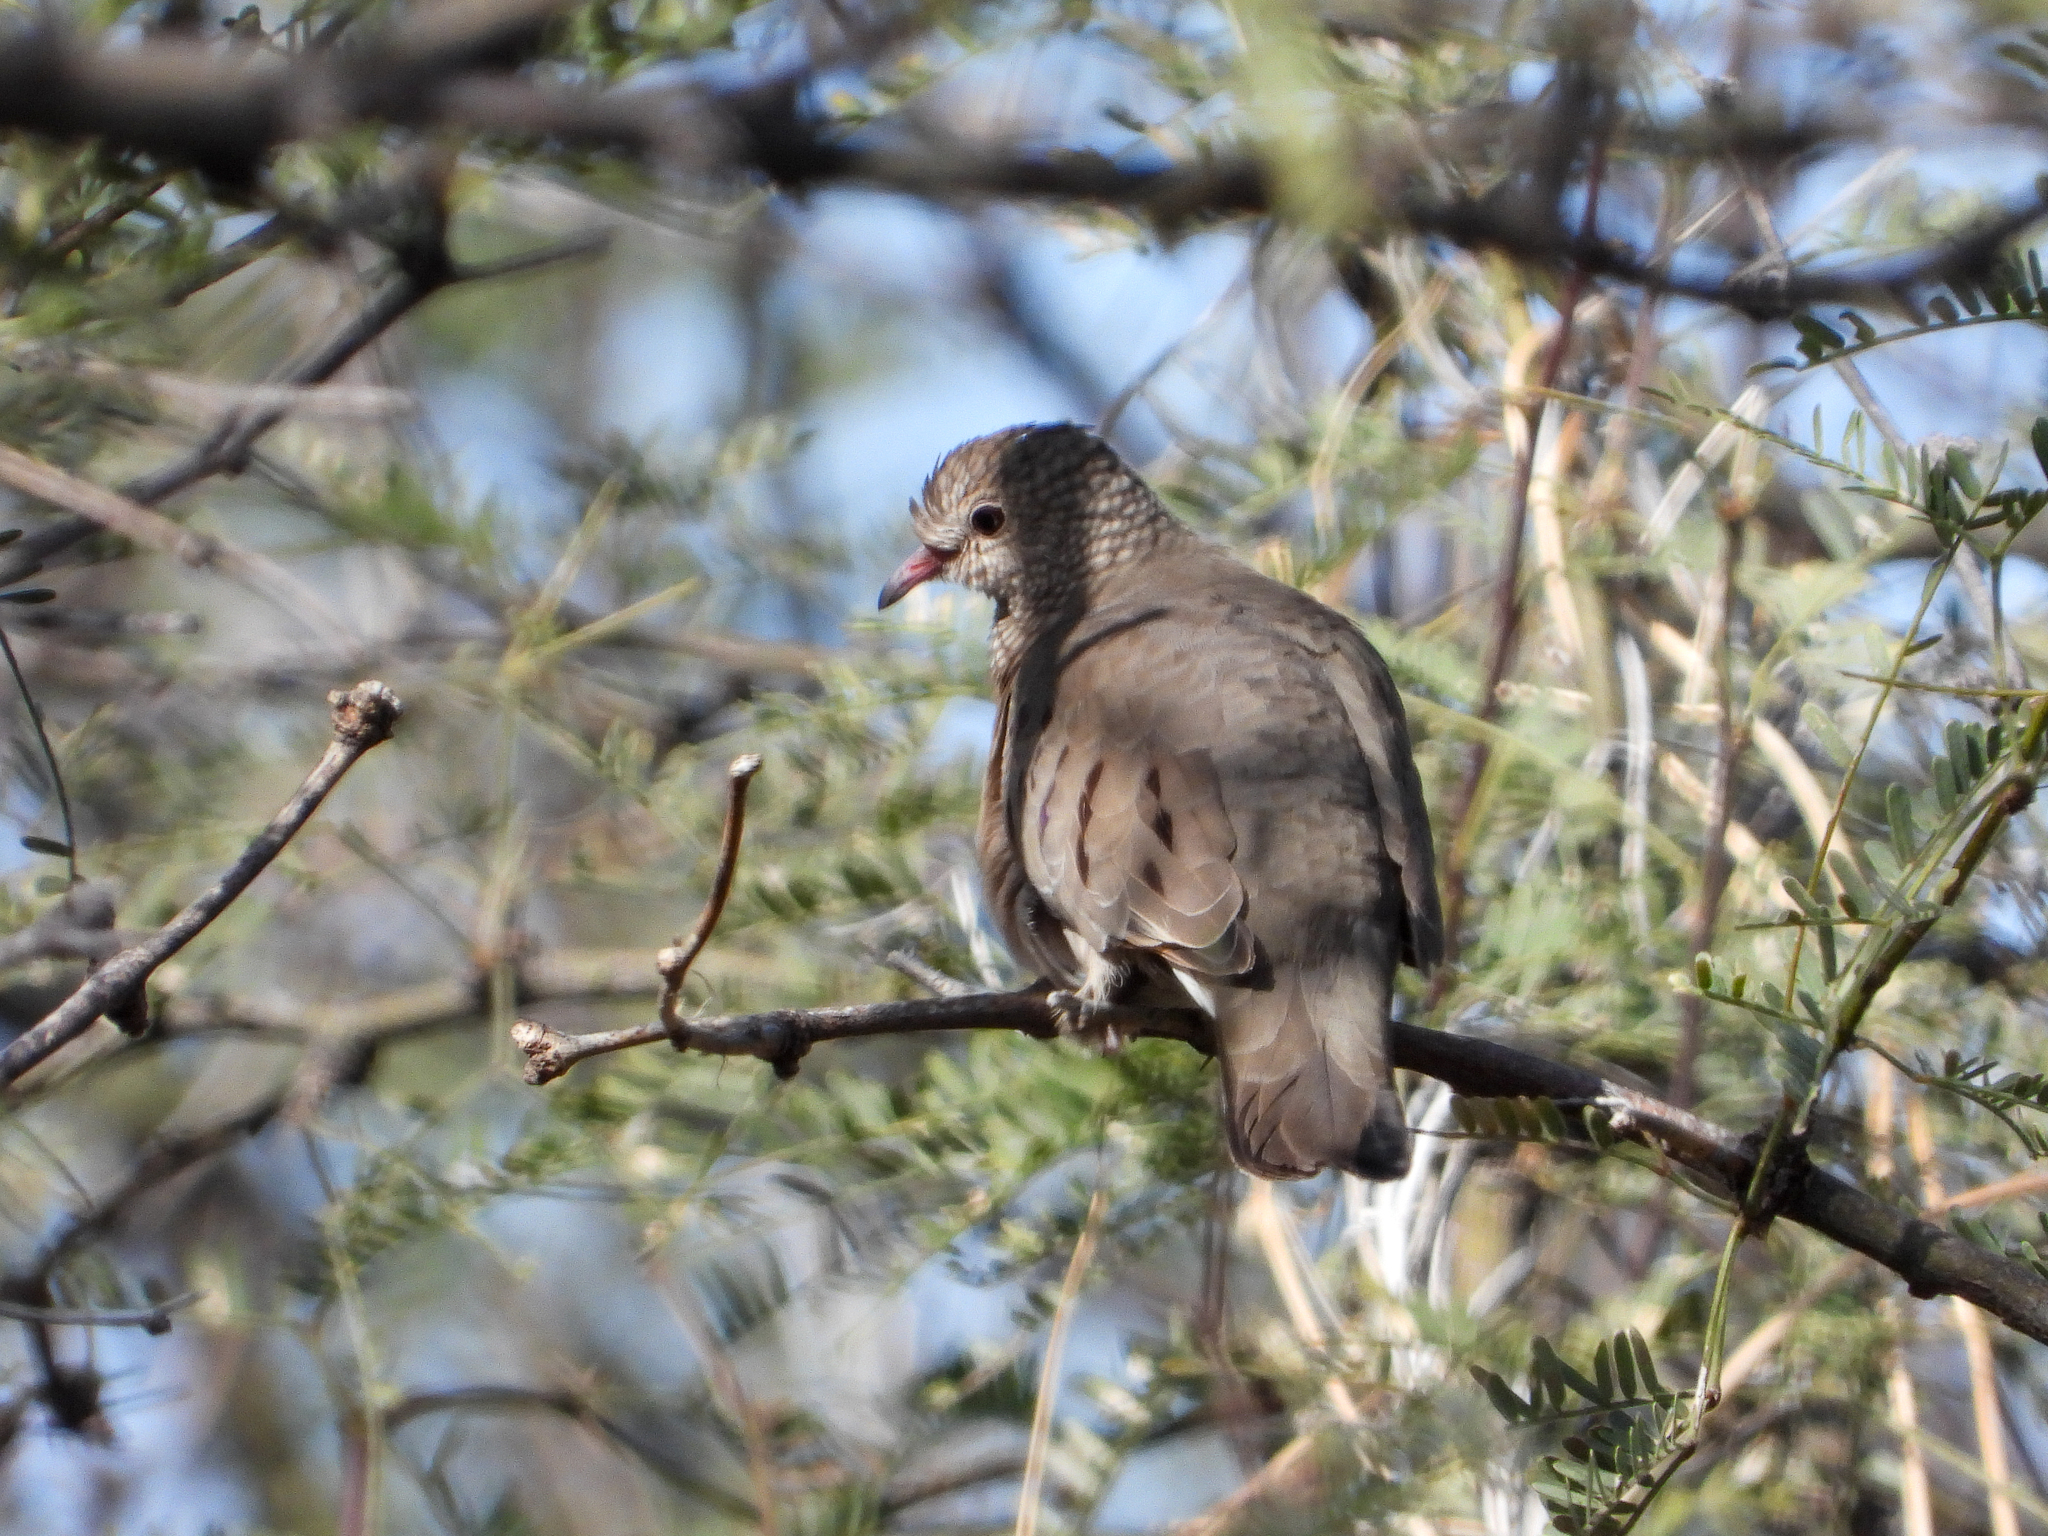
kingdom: Animalia
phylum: Chordata
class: Aves
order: Columbiformes
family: Columbidae
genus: Columbina
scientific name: Columbina passerina
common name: Common ground-dove
